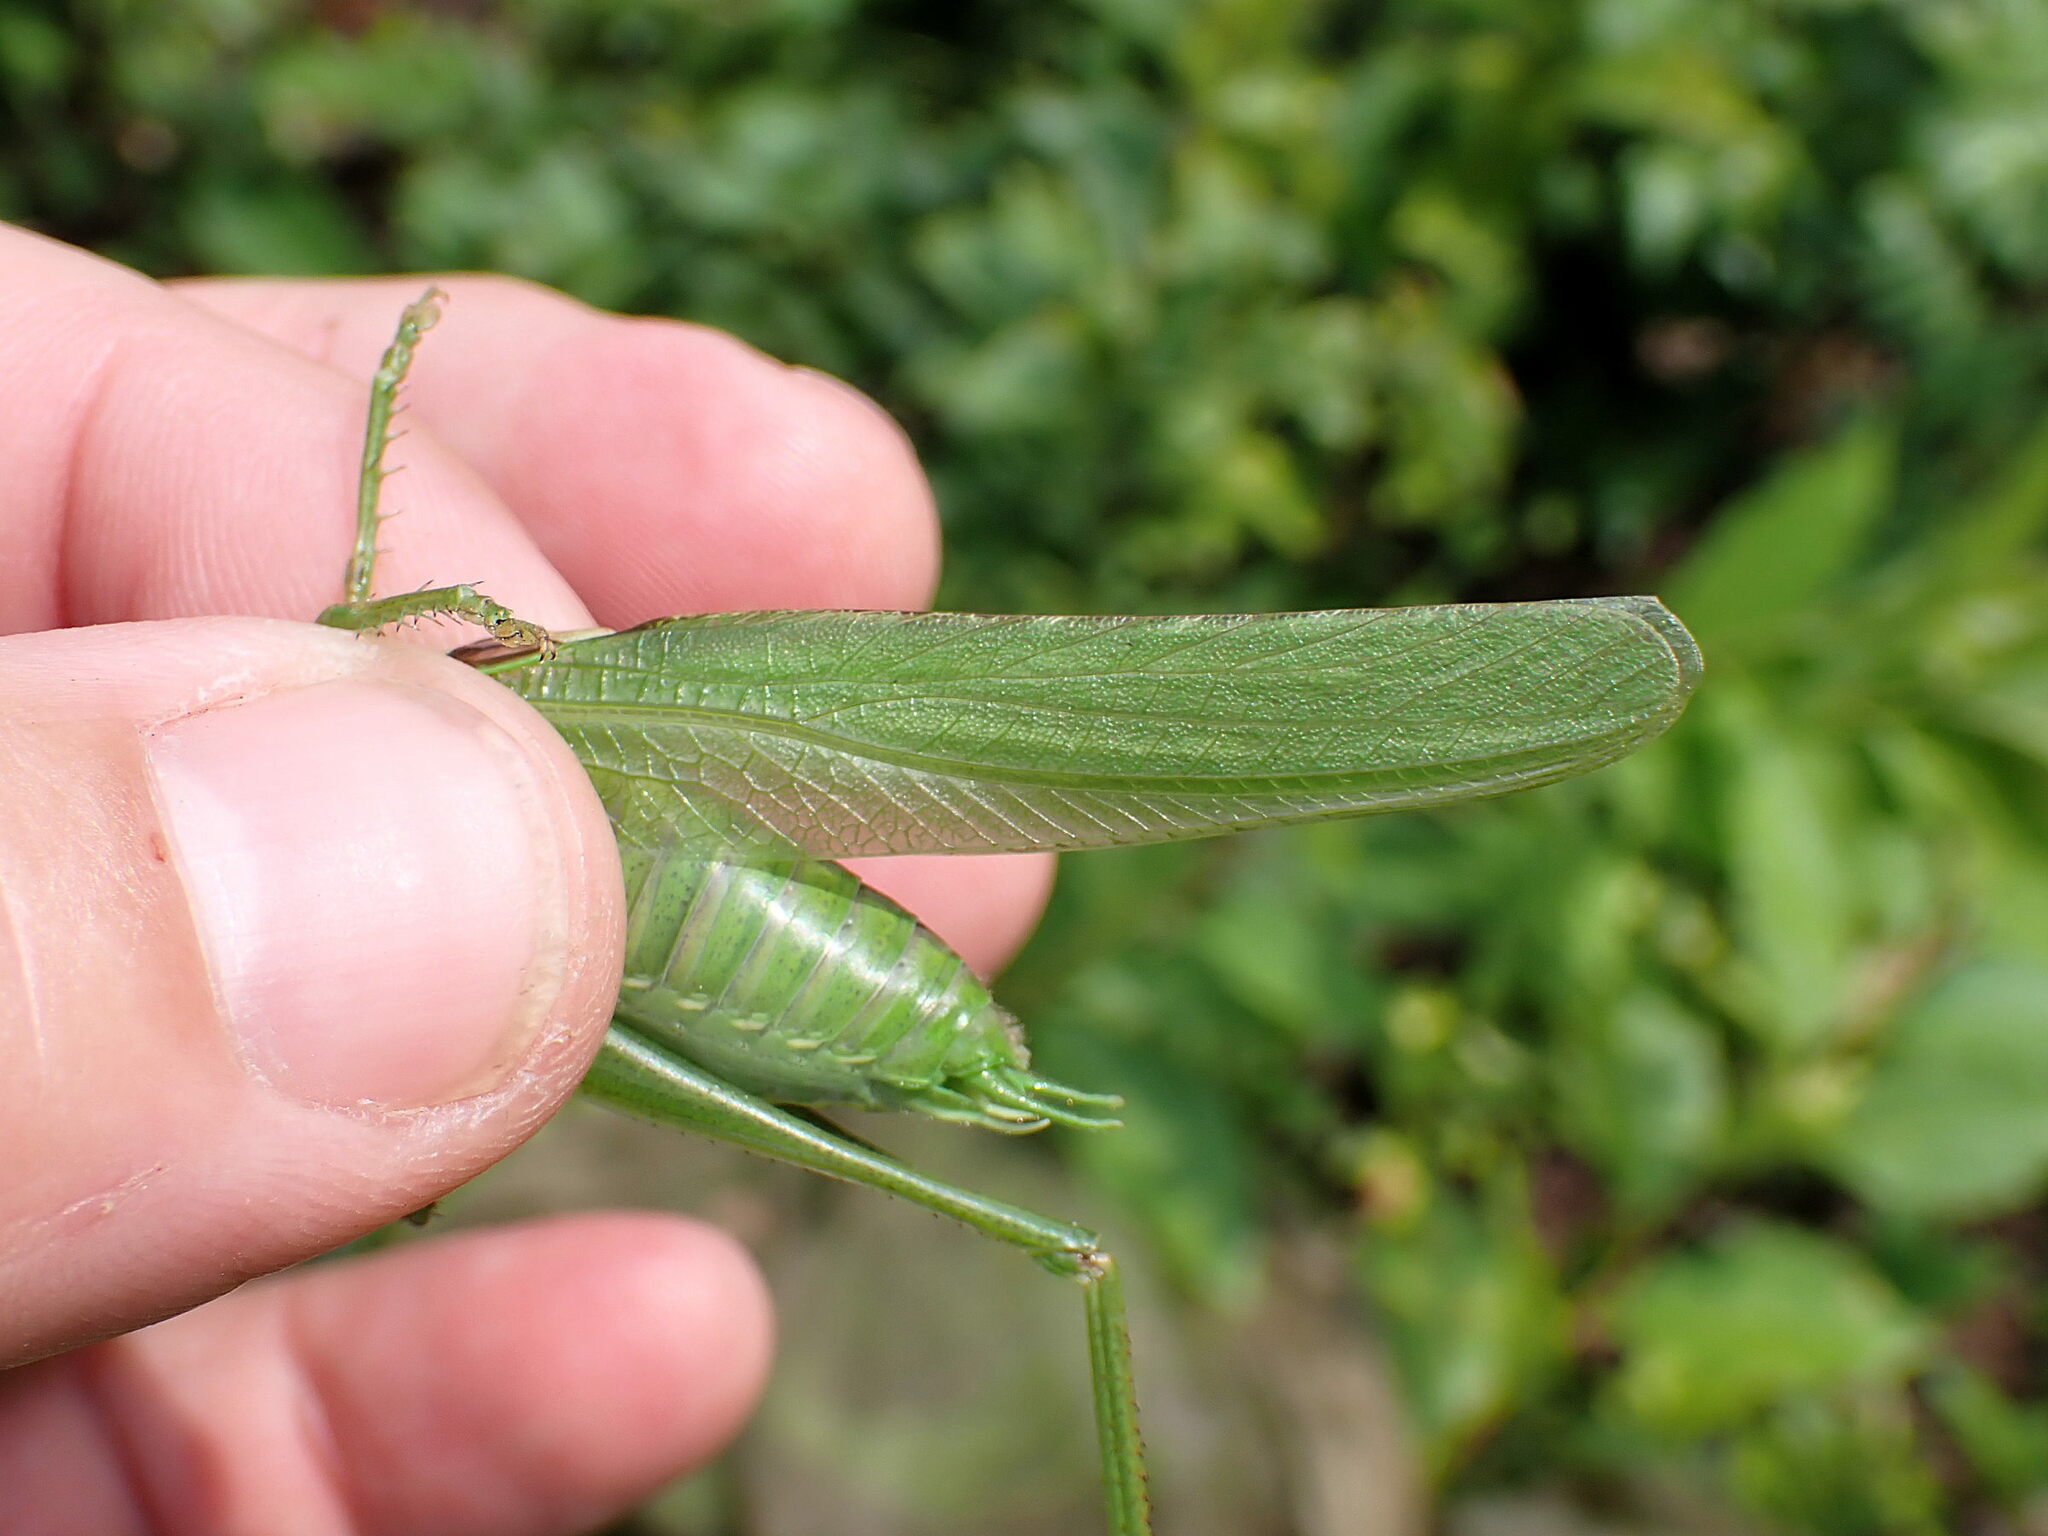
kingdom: Animalia
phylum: Arthropoda
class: Insecta
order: Orthoptera
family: Tettigoniidae
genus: Tettigonia
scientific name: Tettigonia viridissima
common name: Great green bush-cricket
